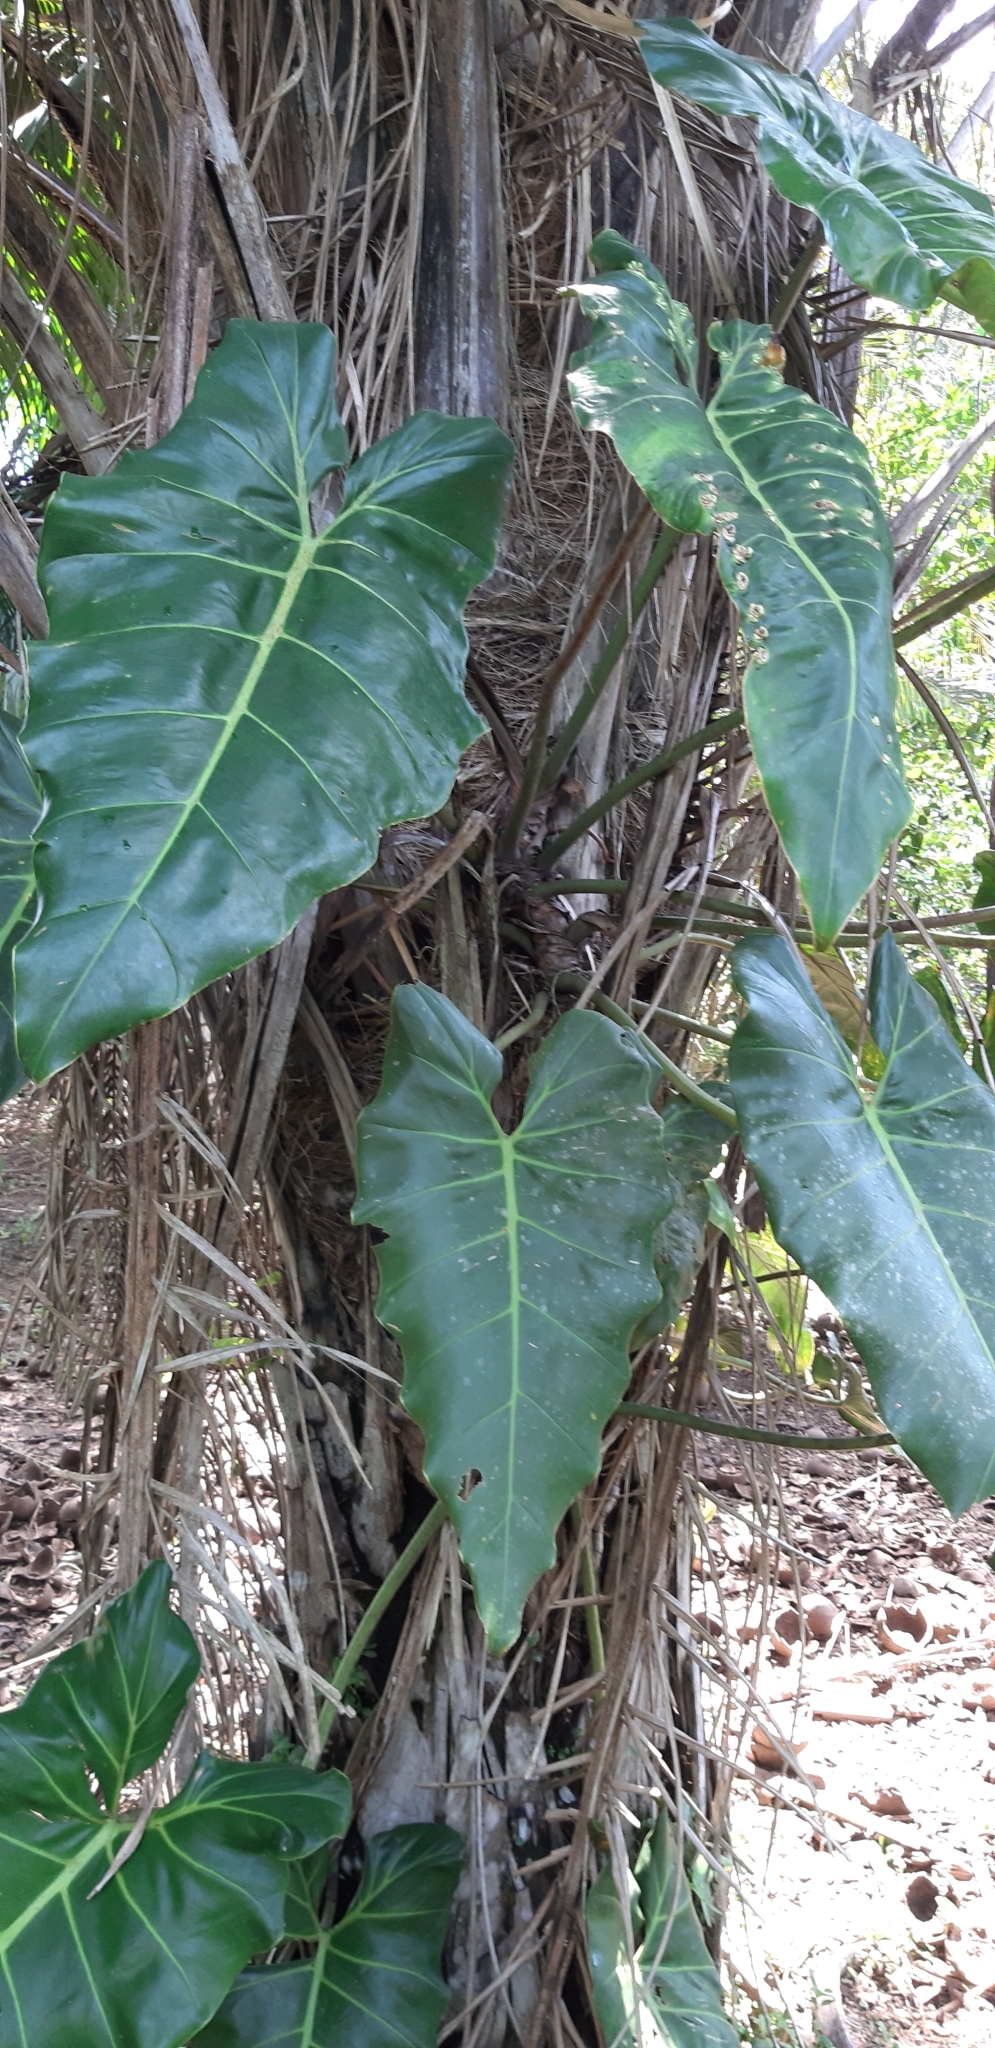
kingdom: Plantae
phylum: Tracheophyta
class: Liliopsida
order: Alismatales
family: Araceae
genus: Philodendron
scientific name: Philodendron maximum
